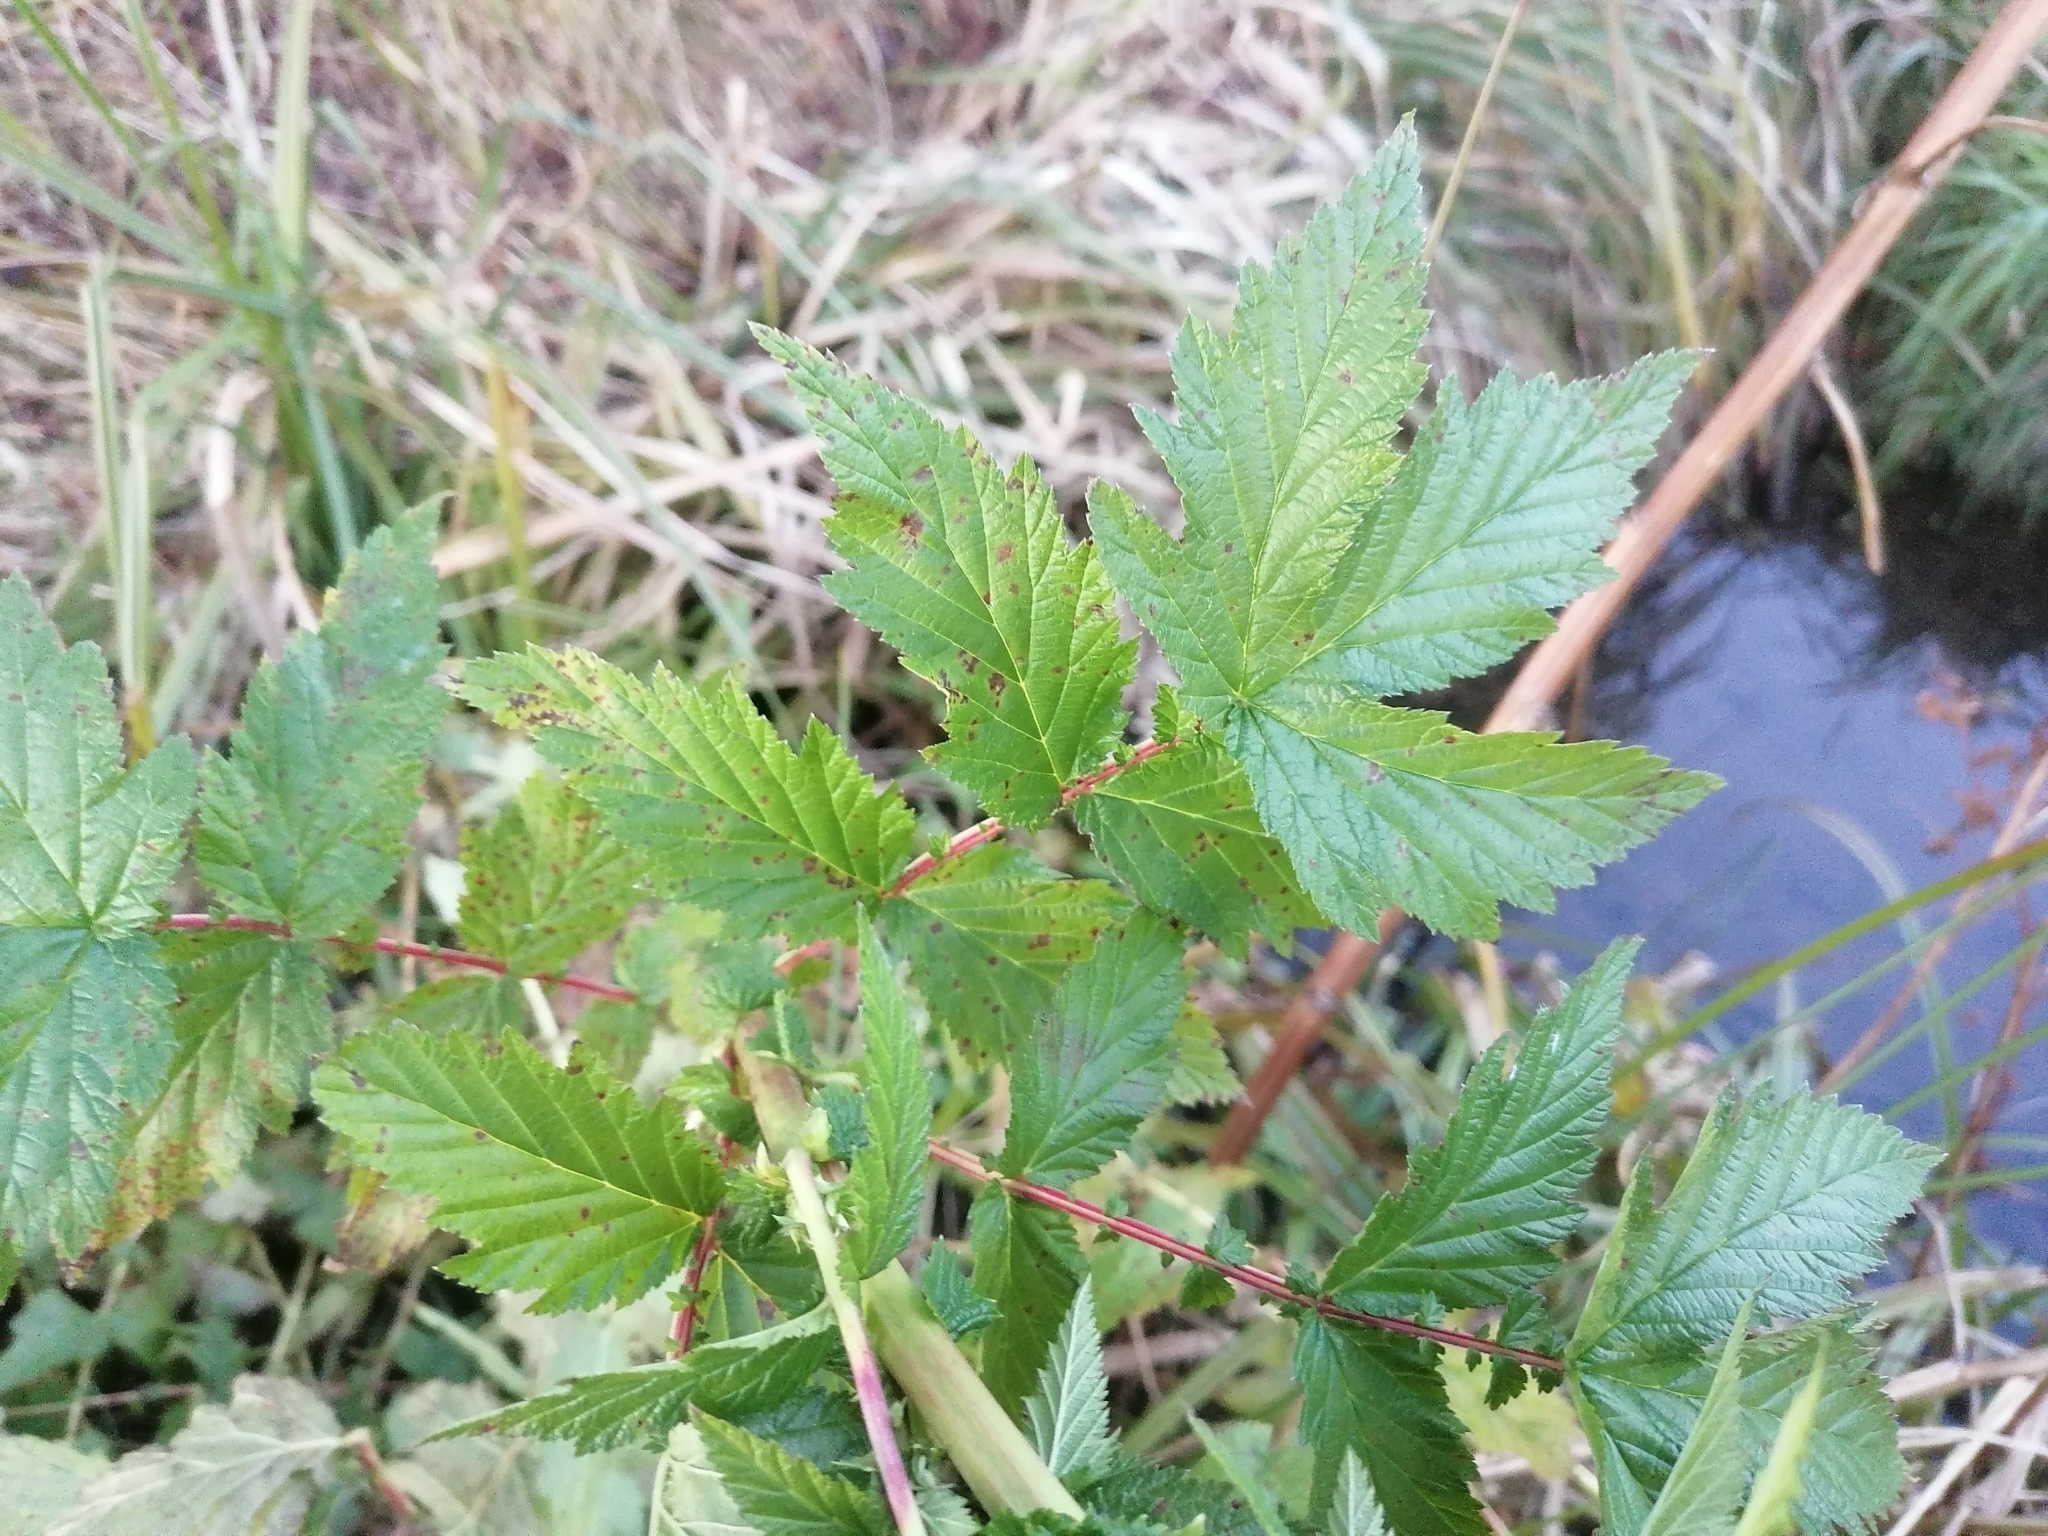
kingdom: Plantae
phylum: Tracheophyta
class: Magnoliopsida
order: Rosales
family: Rosaceae
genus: Filipendula
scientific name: Filipendula ulmaria
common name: Meadowsweet
